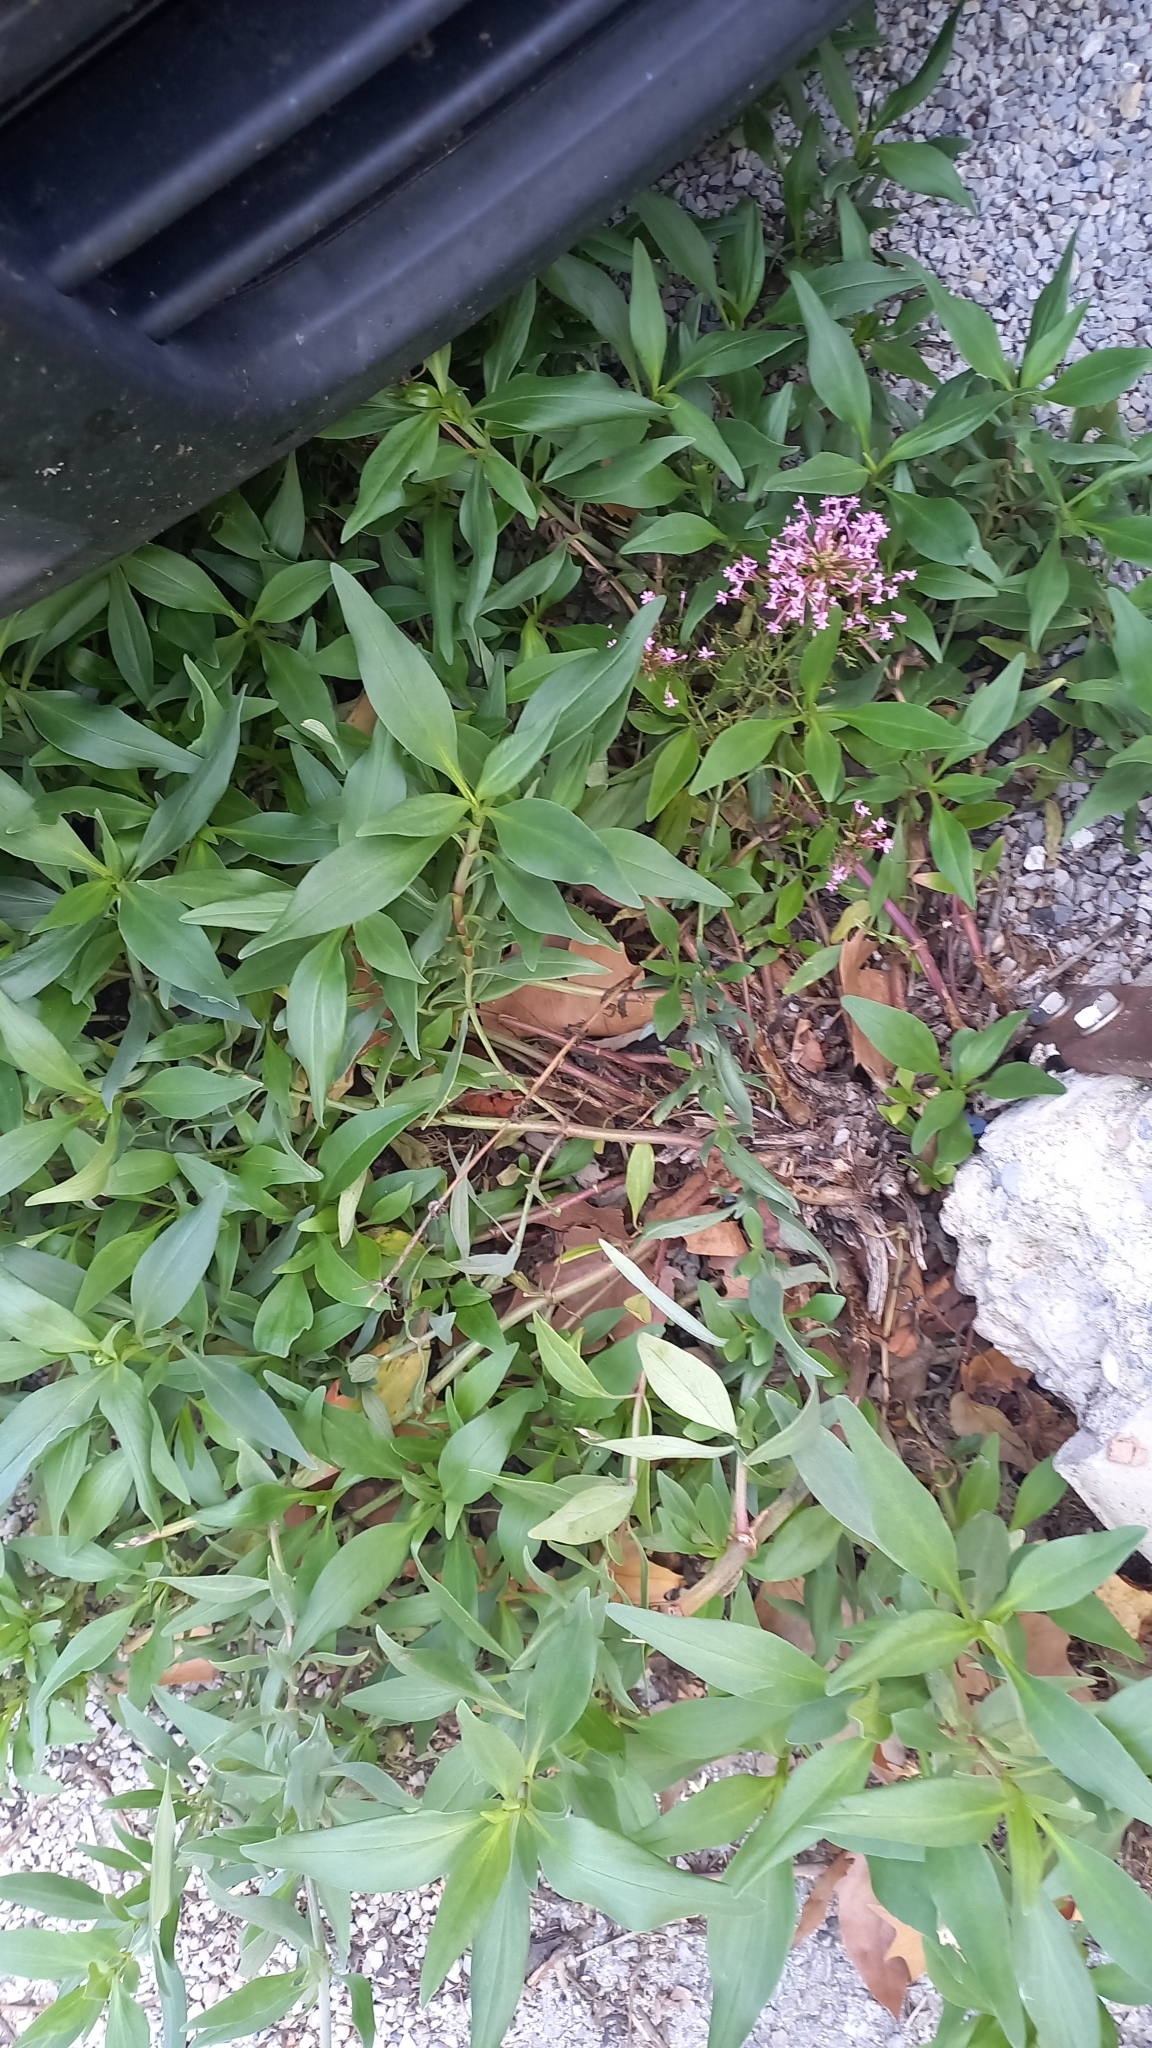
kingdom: Plantae
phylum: Tracheophyta
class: Magnoliopsida
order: Dipsacales
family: Caprifoliaceae
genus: Centranthus
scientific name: Centranthus ruber
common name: Red valerian
